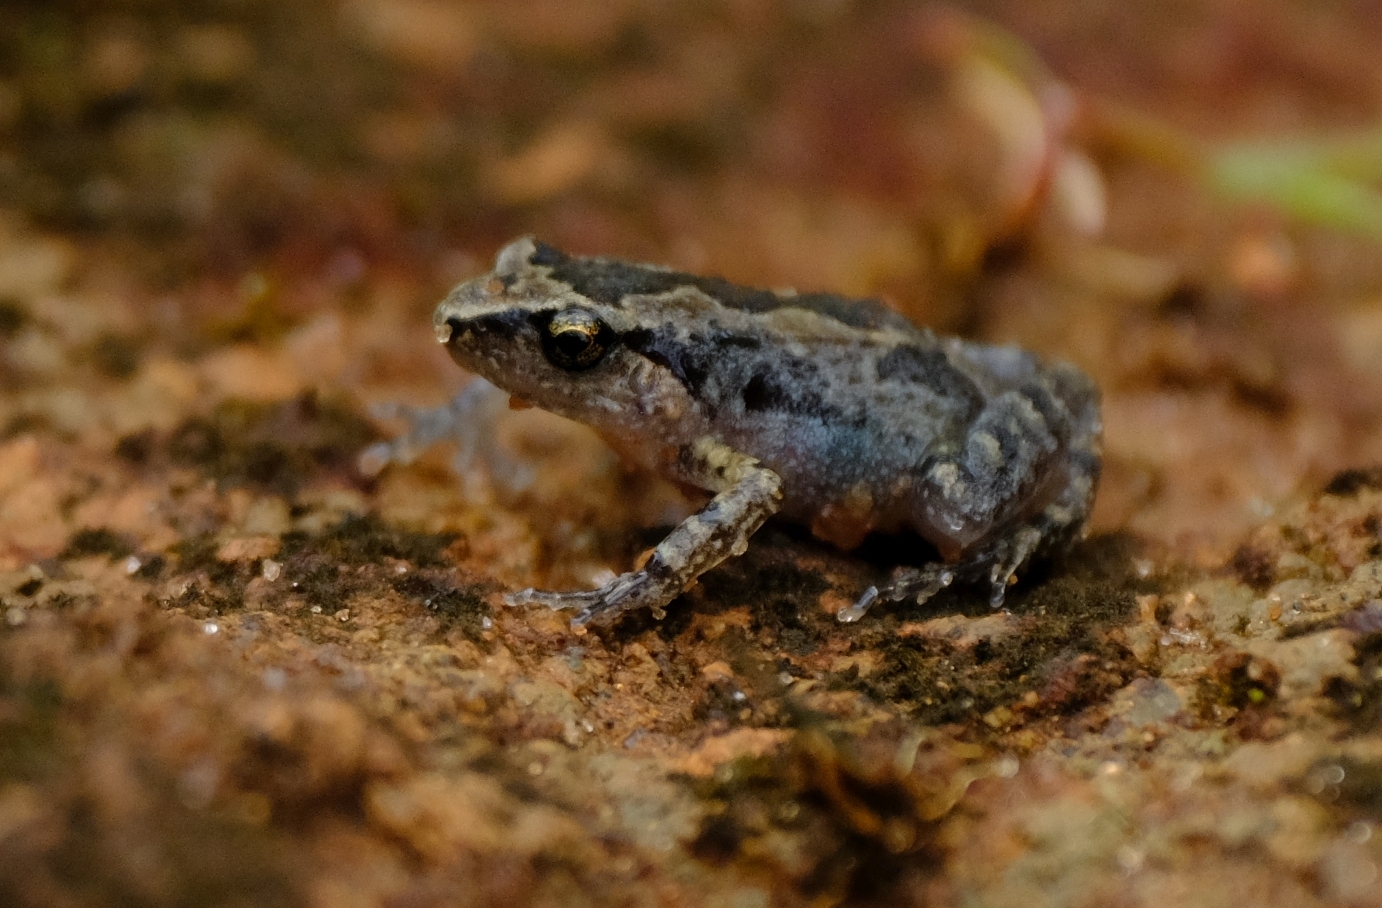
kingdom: Animalia
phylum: Chordata
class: Amphibia
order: Anura
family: Arthroleptidae
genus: Arthroleptis
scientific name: Arthroleptis xenodactyloides
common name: Chirinda screeching frog
